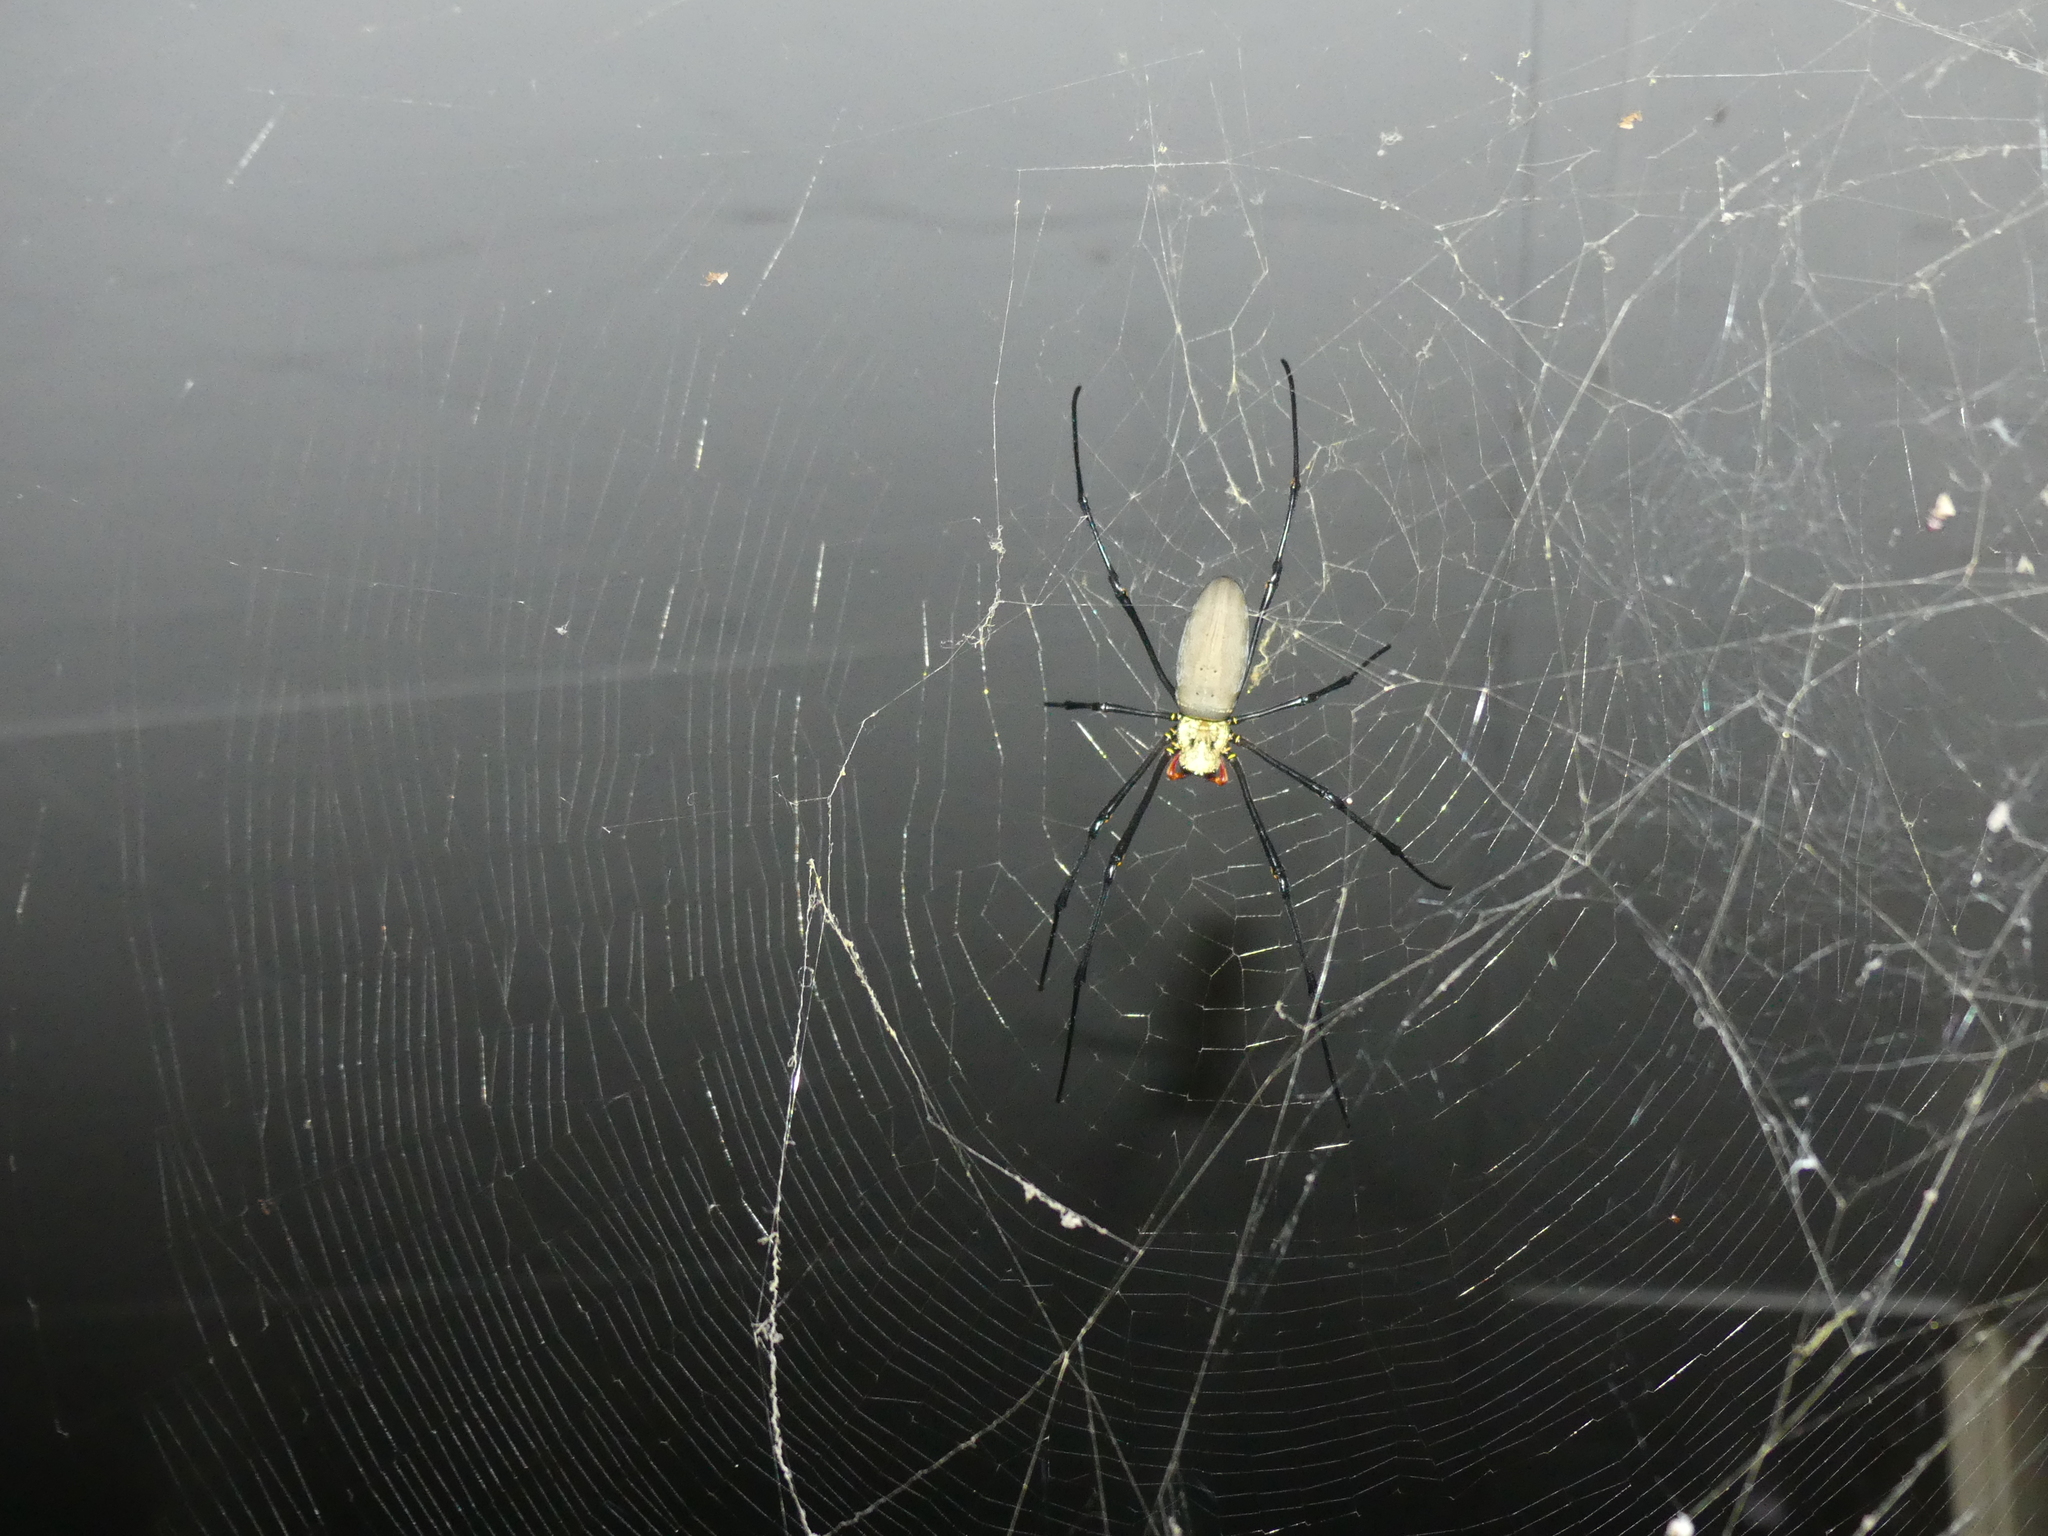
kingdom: Animalia
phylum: Arthropoda
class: Arachnida
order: Araneae
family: Araneidae
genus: Nephila
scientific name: Nephila pilipes
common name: Giant golden orb weaver
